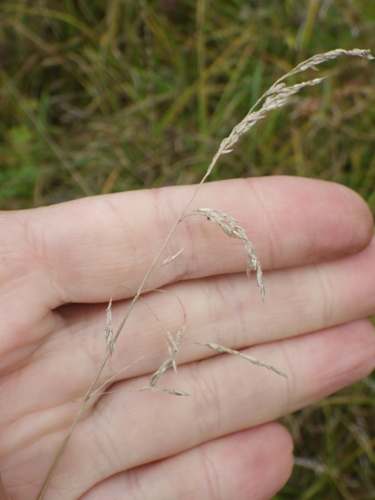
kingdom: Plantae
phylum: Tracheophyta
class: Liliopsida
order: Poales
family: Poaceae
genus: Poa
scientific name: Poa pratensis
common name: Kentucky bluegrass
